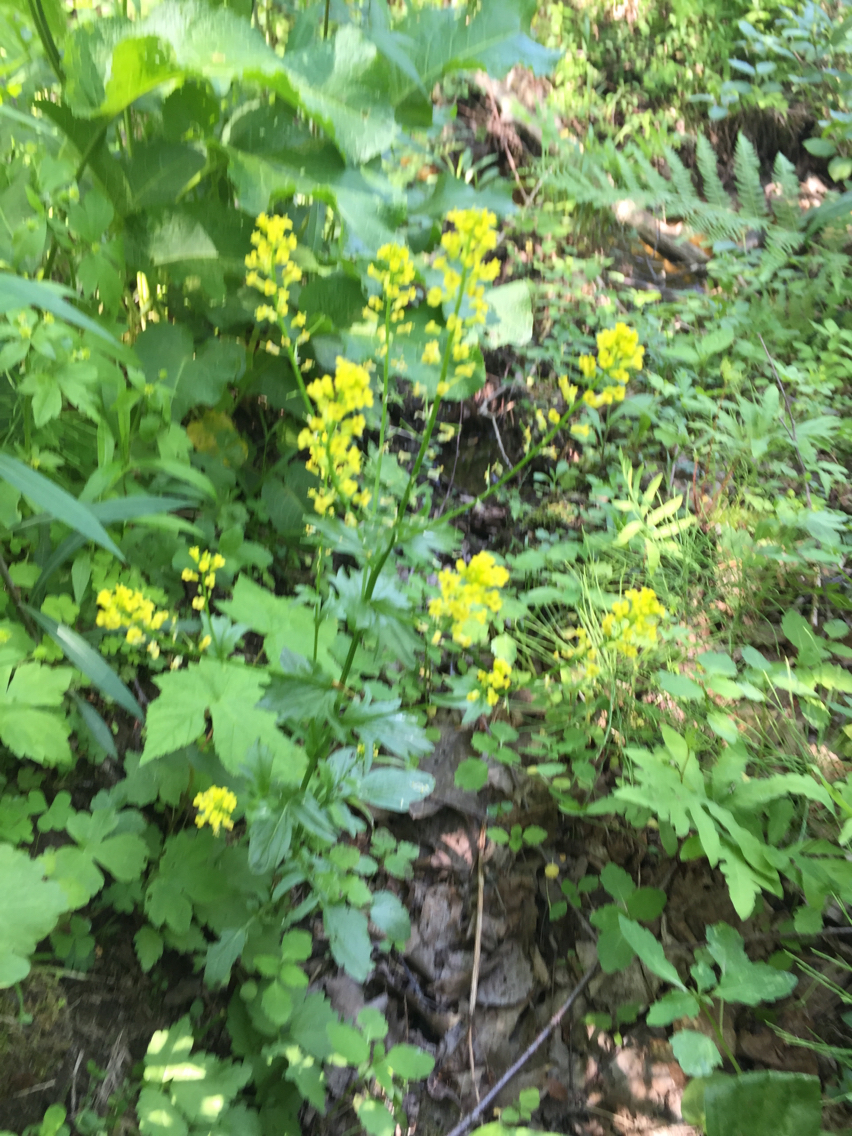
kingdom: Plantae
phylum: Tracheophyta
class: Magnoliopsida
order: Brassicales
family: Brassicaceae
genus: Barbarea
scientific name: Barbarea vulgaris
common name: Cressy-greens
